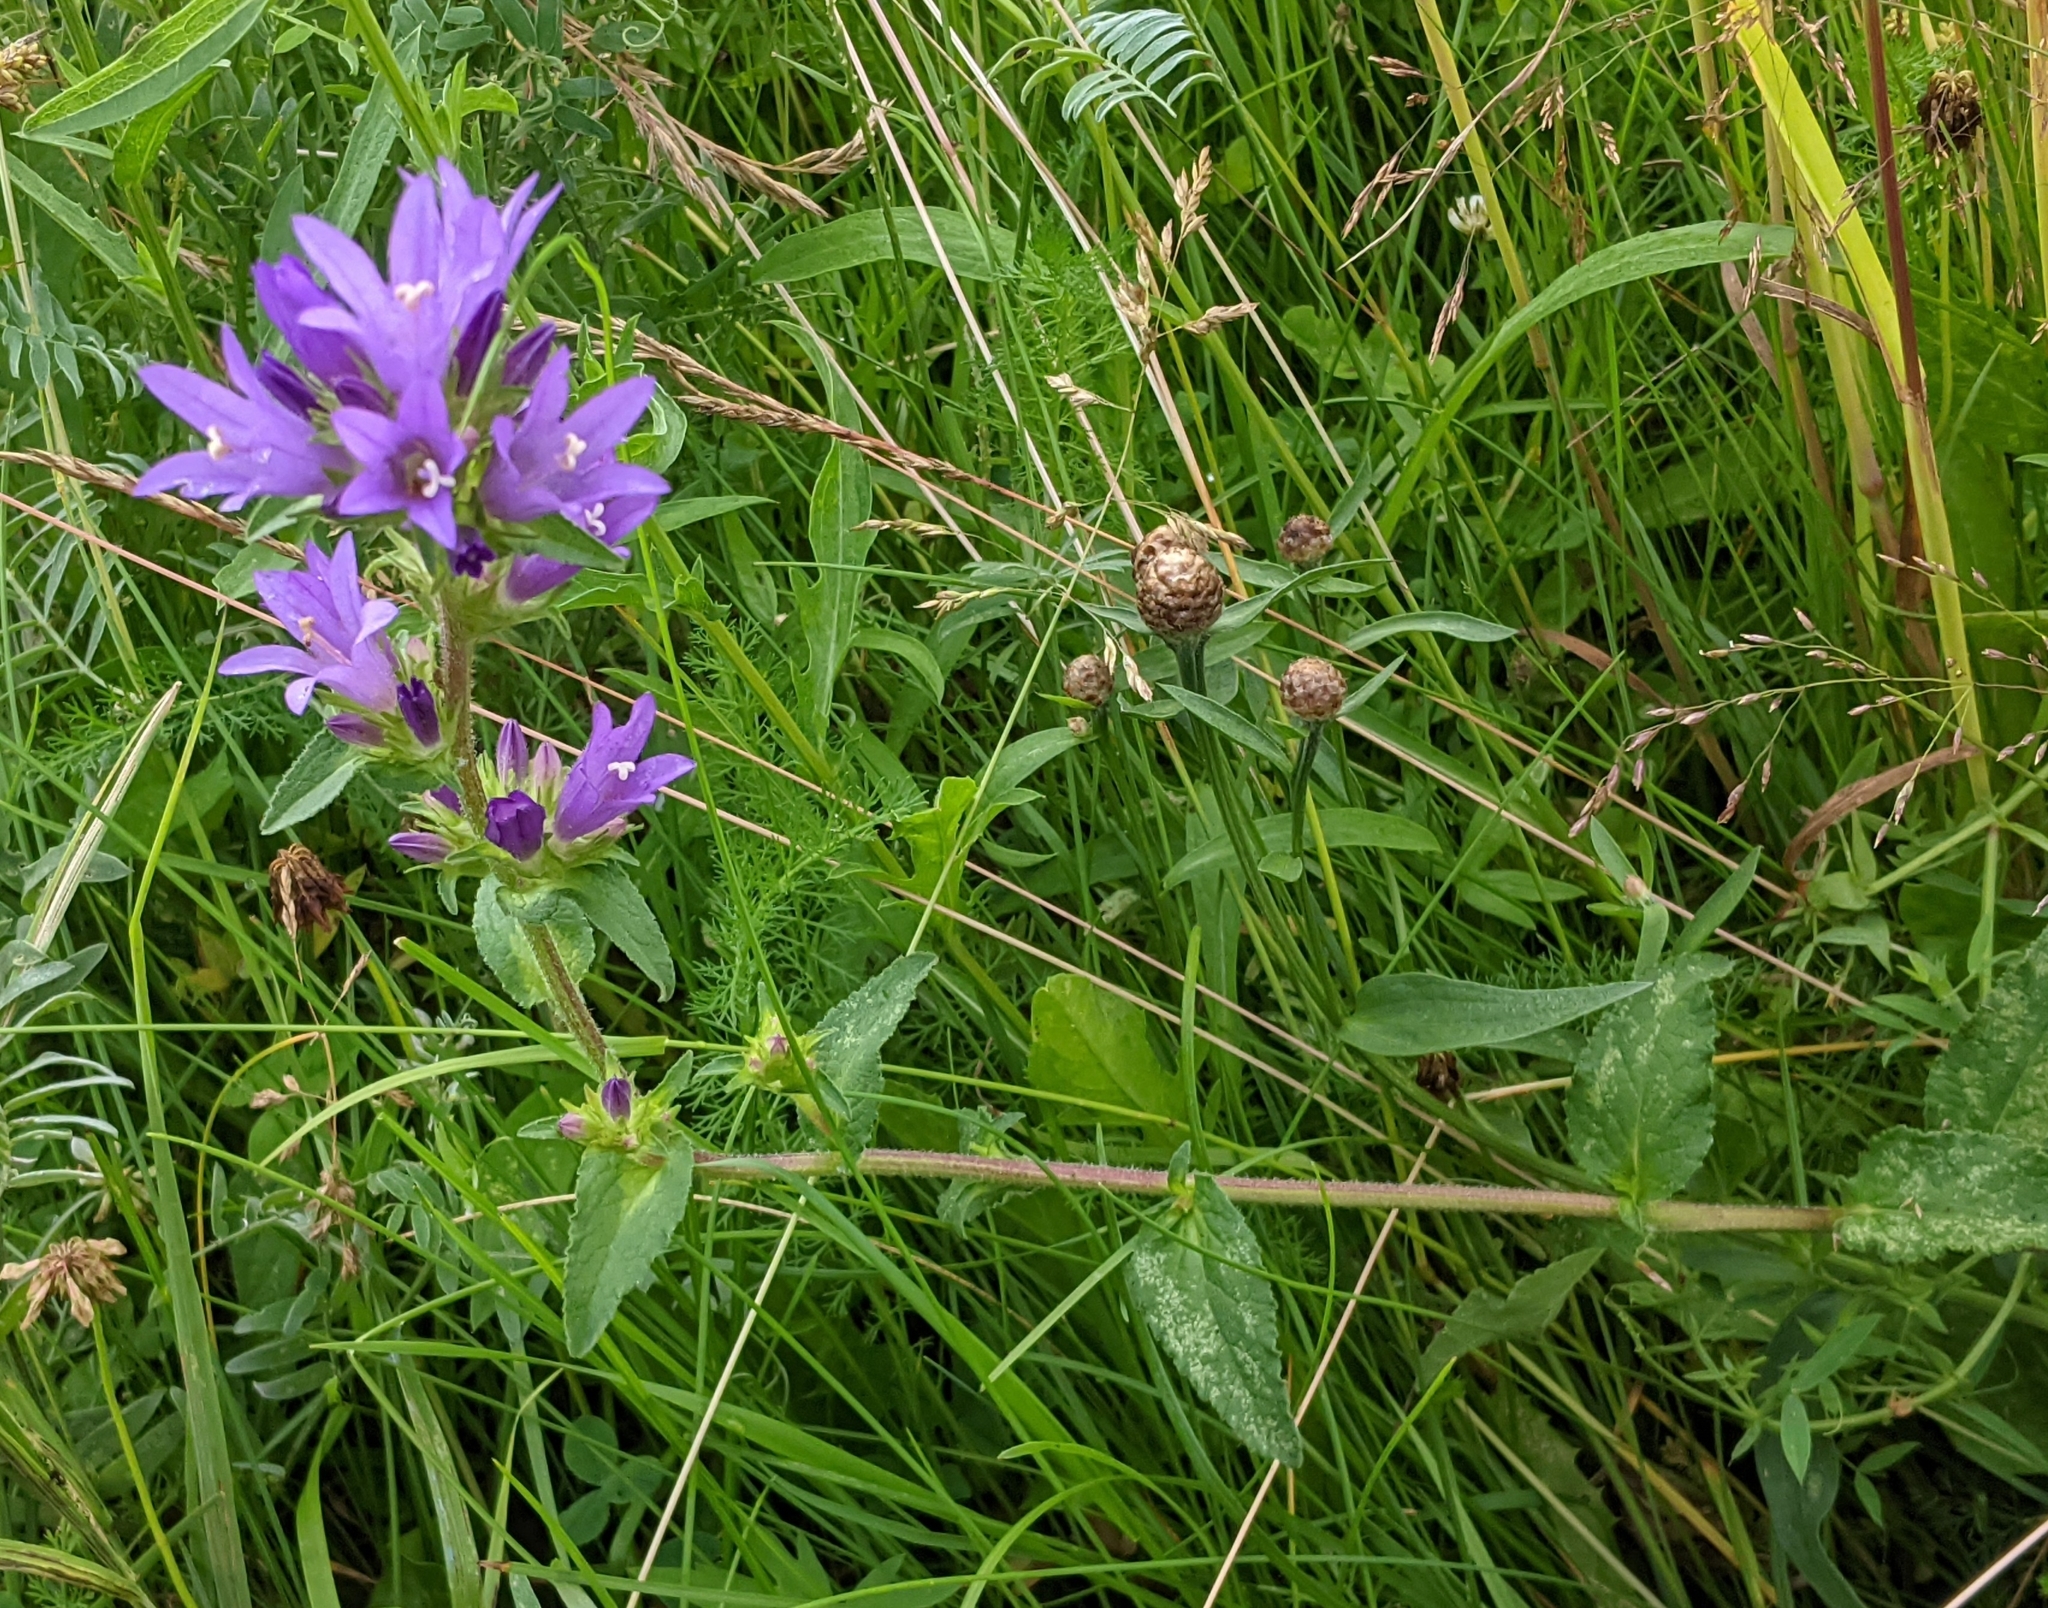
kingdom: Plantae
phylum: Tracheophyta
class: Magnoliopsida
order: Asterales
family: Campanulaceae
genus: Campanula
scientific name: Campanula glomerata
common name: Clustered bellflower
